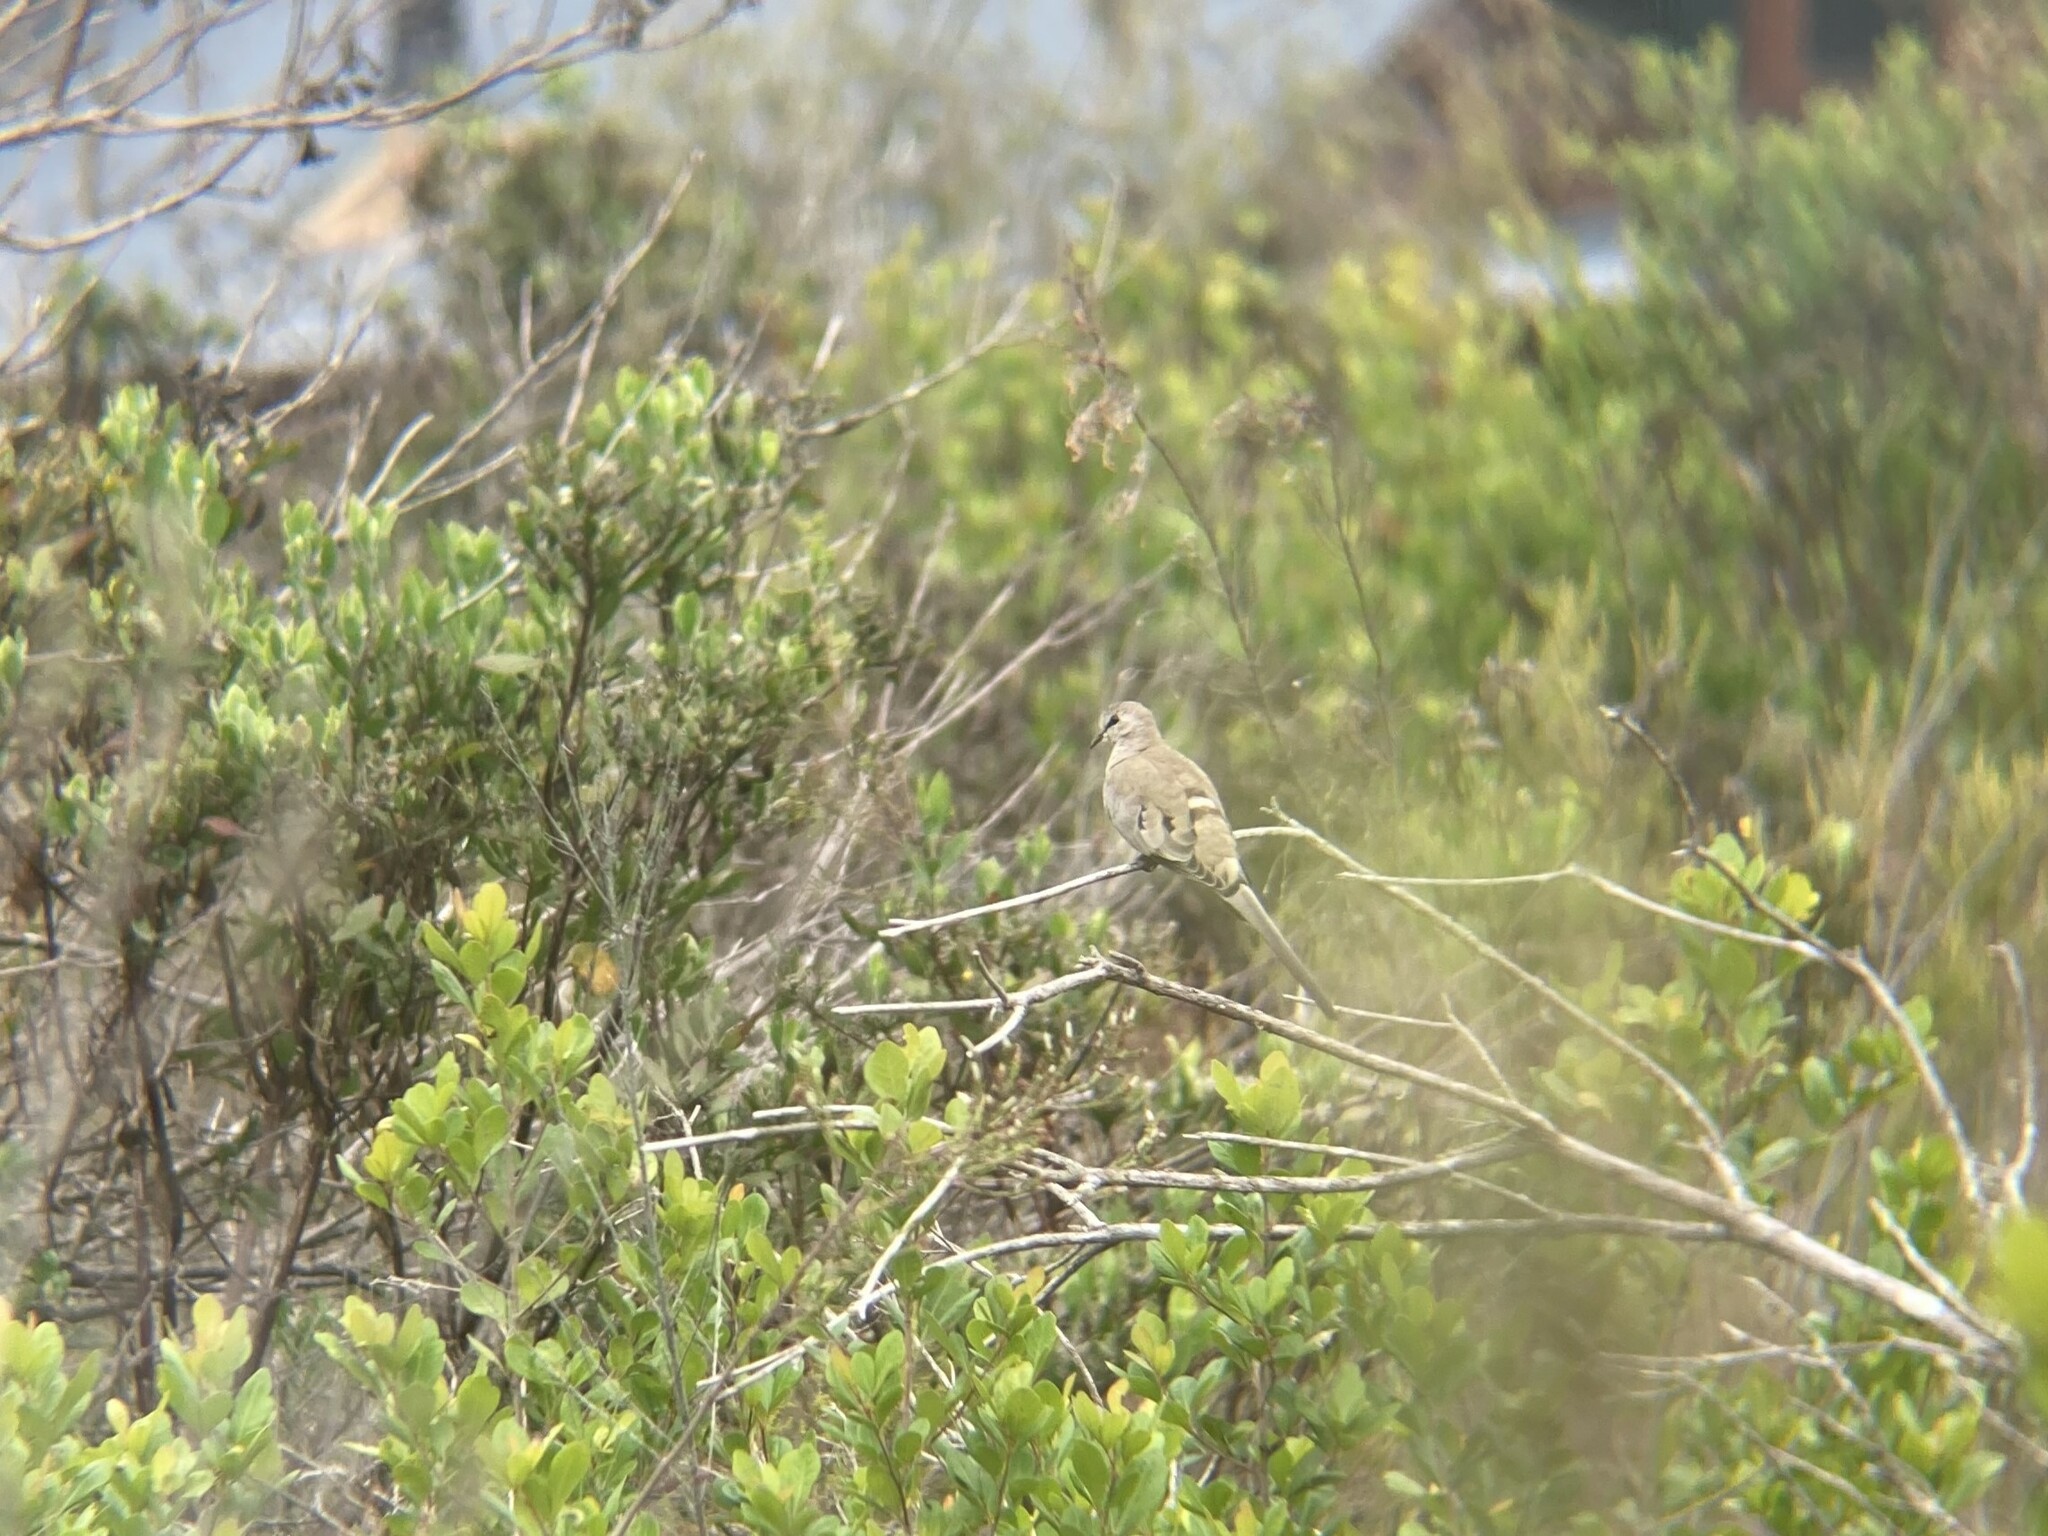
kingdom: Animalia
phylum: Chordata
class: Aves
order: Columbiformes
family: Columbidae
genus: Oena
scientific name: Oena capensis
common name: Namaqua dove
